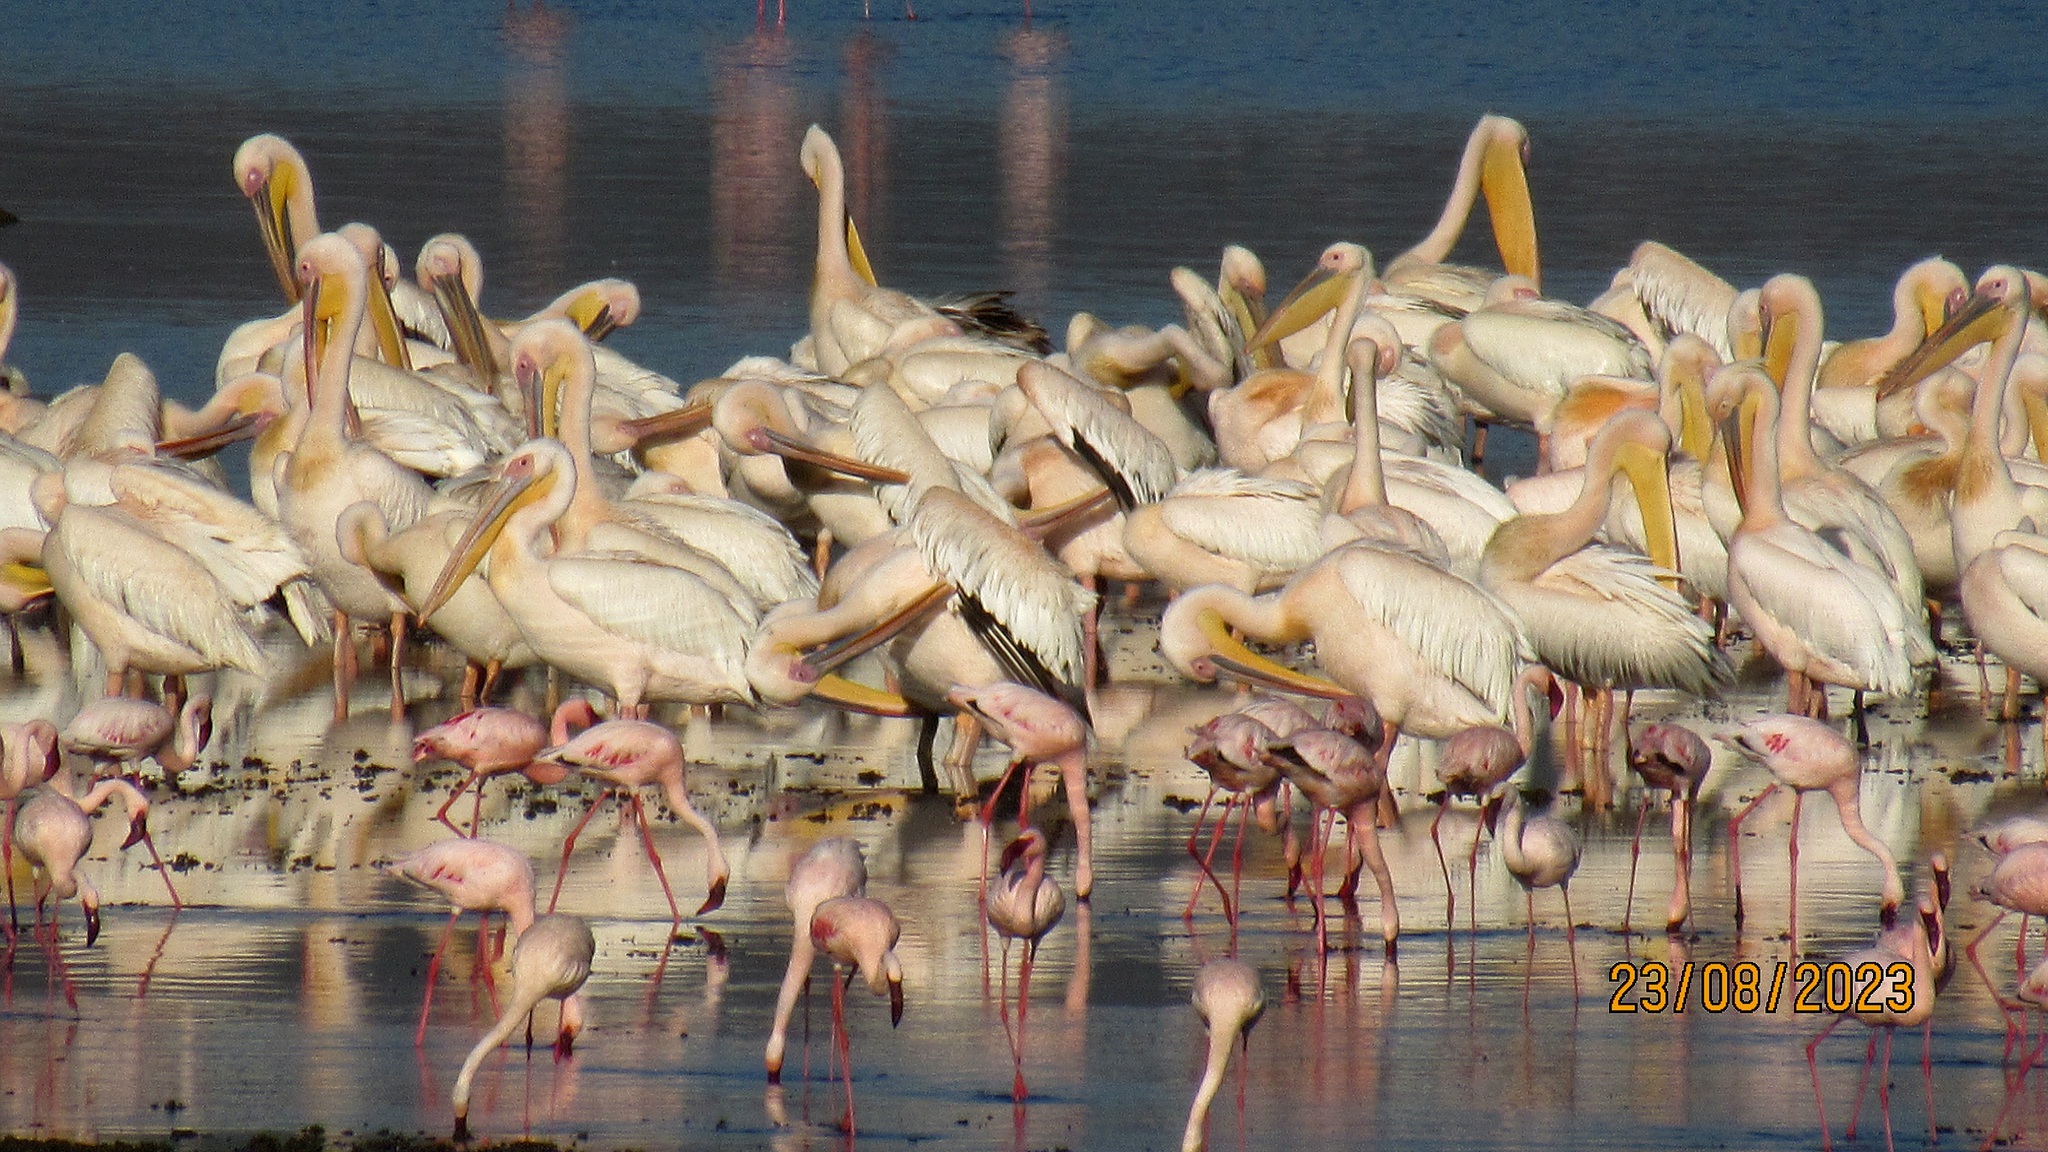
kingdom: Animalia
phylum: Chordata
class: Aves
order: Pelecaniformes
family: Pelecanidae
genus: Pelecanus
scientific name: Pelecanus onocrotalus
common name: Great white pelican
